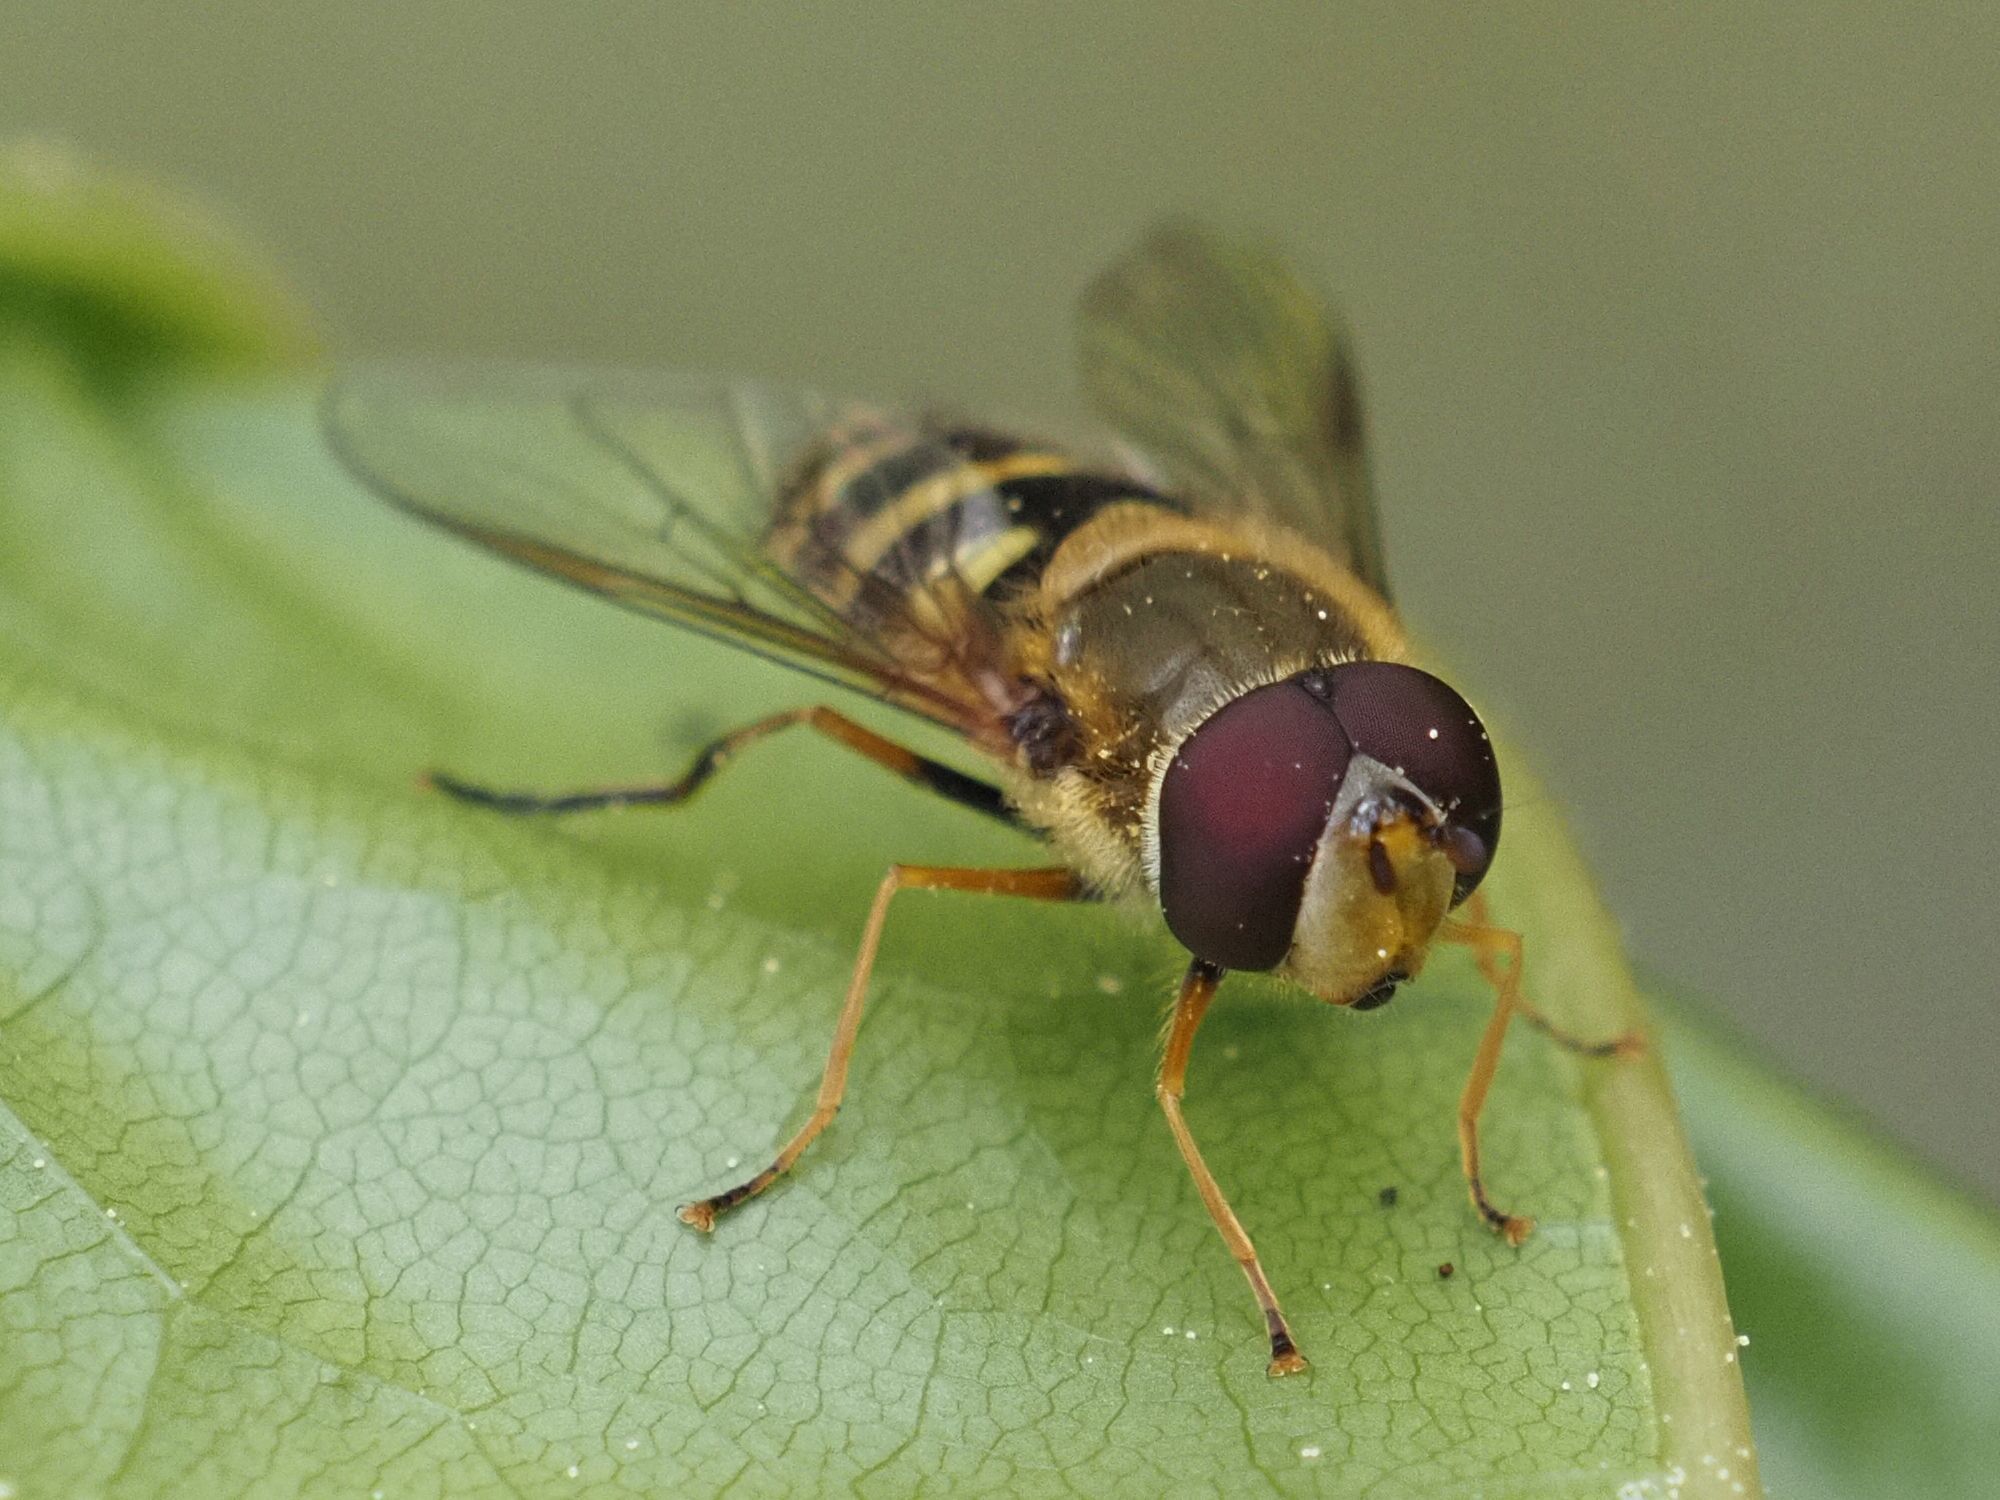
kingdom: Animalia
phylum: Arthropoda
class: Insecta
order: Diptera
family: Syrphidae
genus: Syrphus
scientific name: Syrphus
